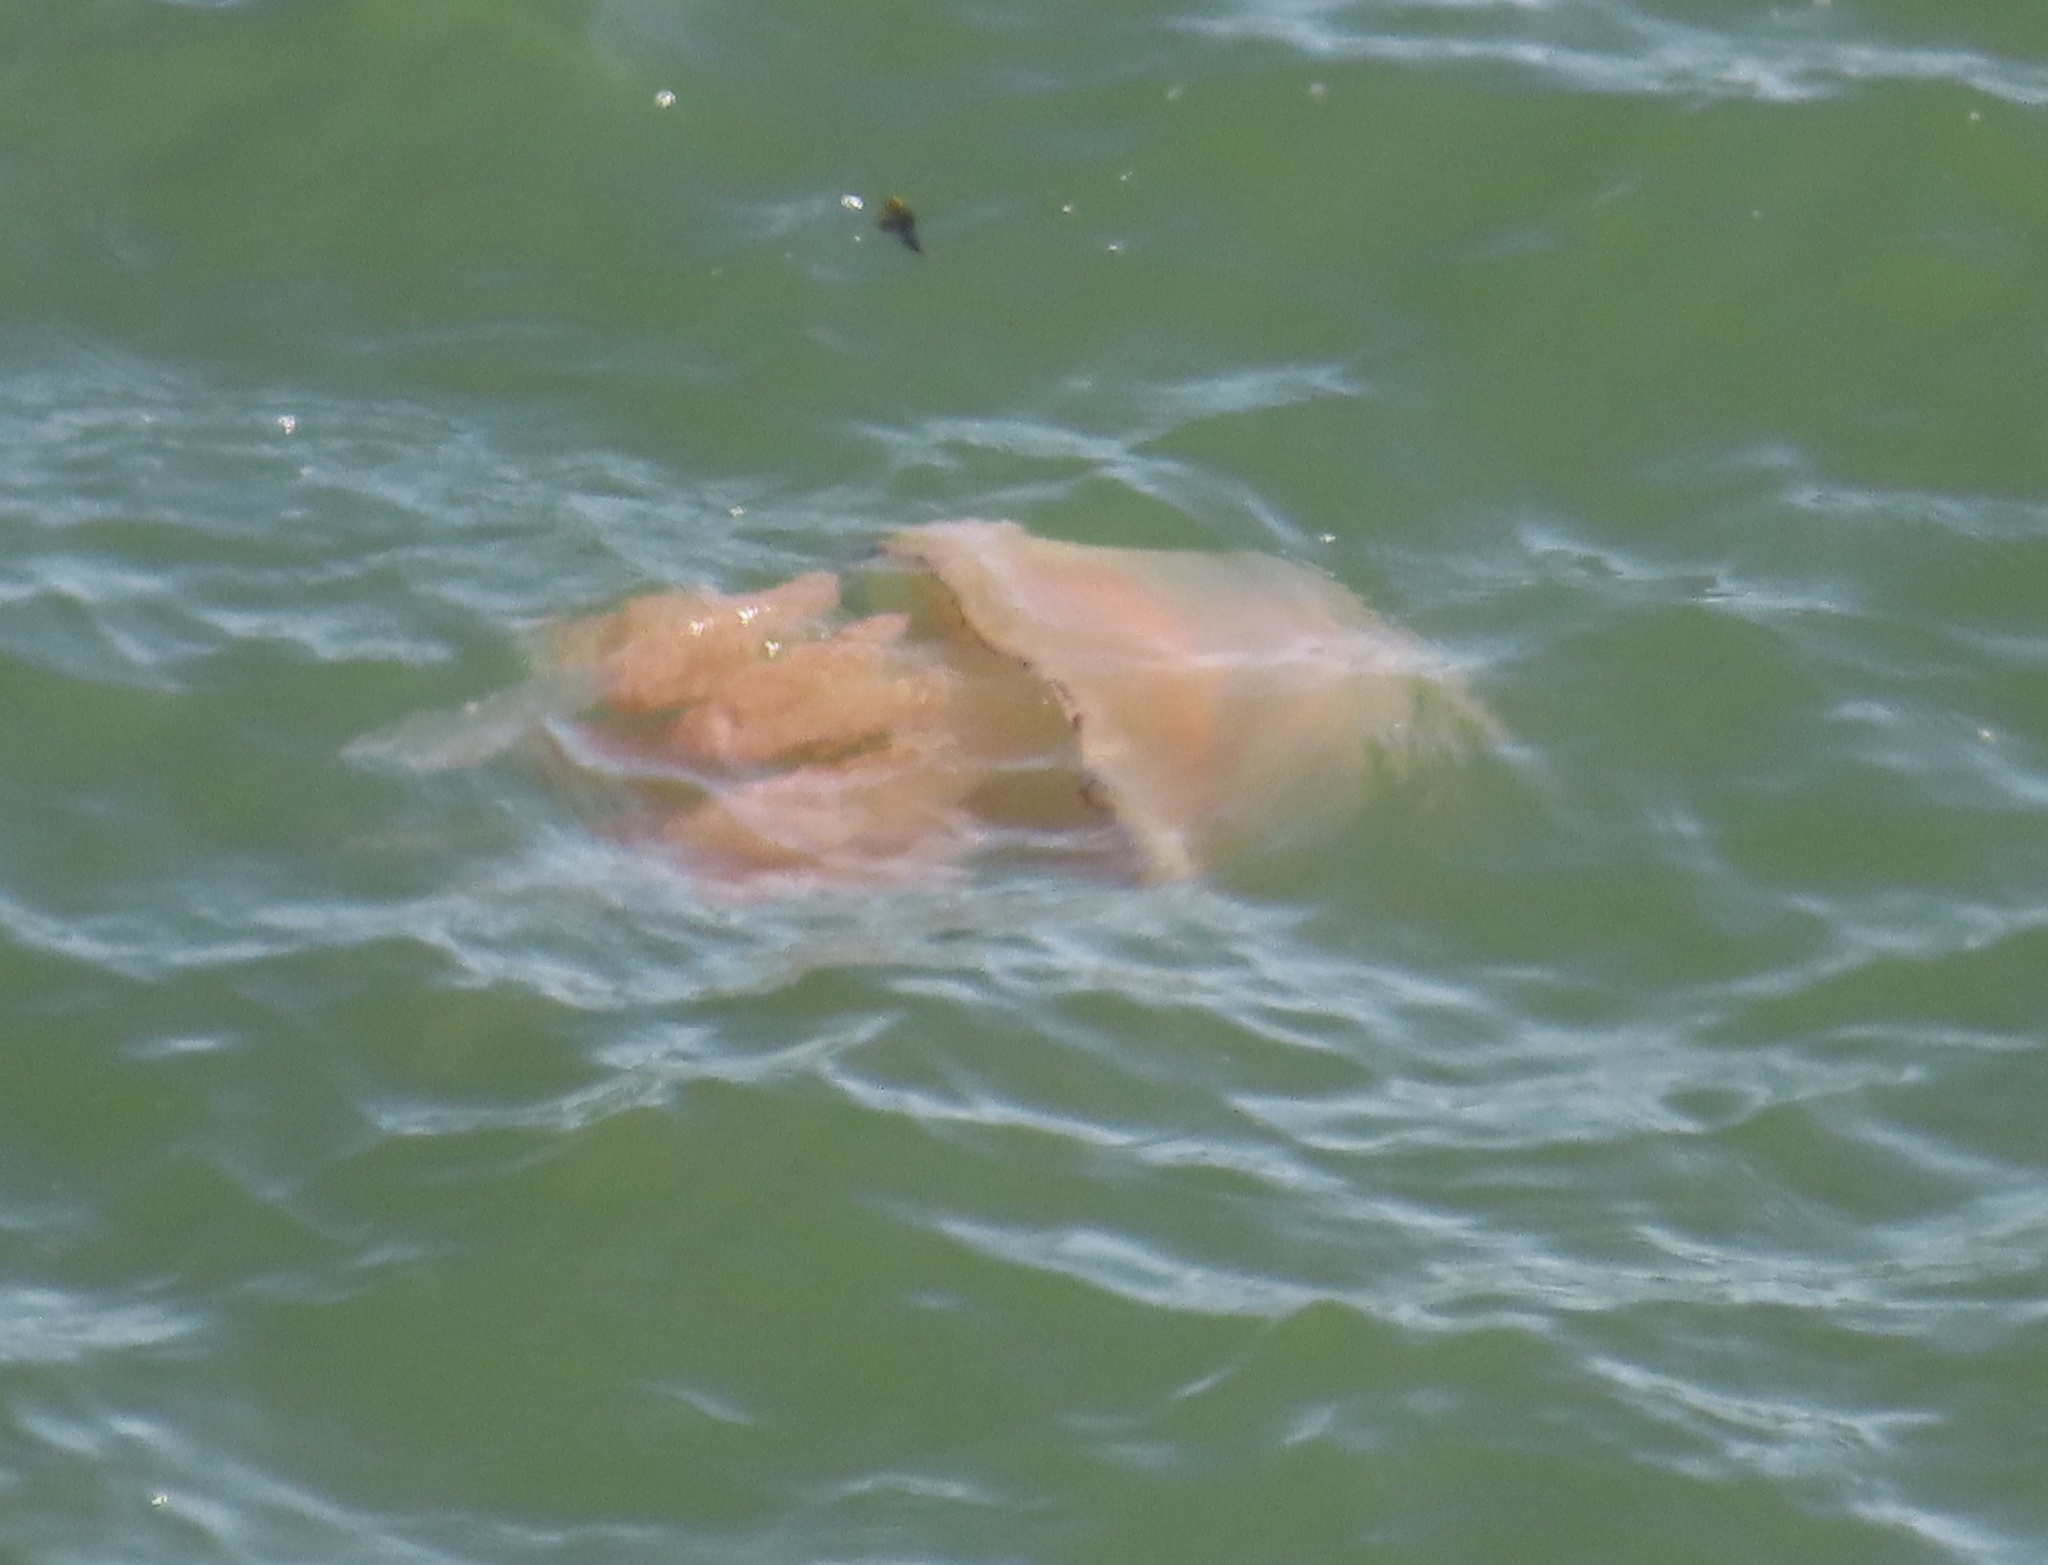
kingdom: Animalia
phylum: Cnidaria
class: Scyphozoa
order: Rhizostomeae
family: Rhizostomatidae
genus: Rhizostoma
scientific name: Rhizostoma octopus
